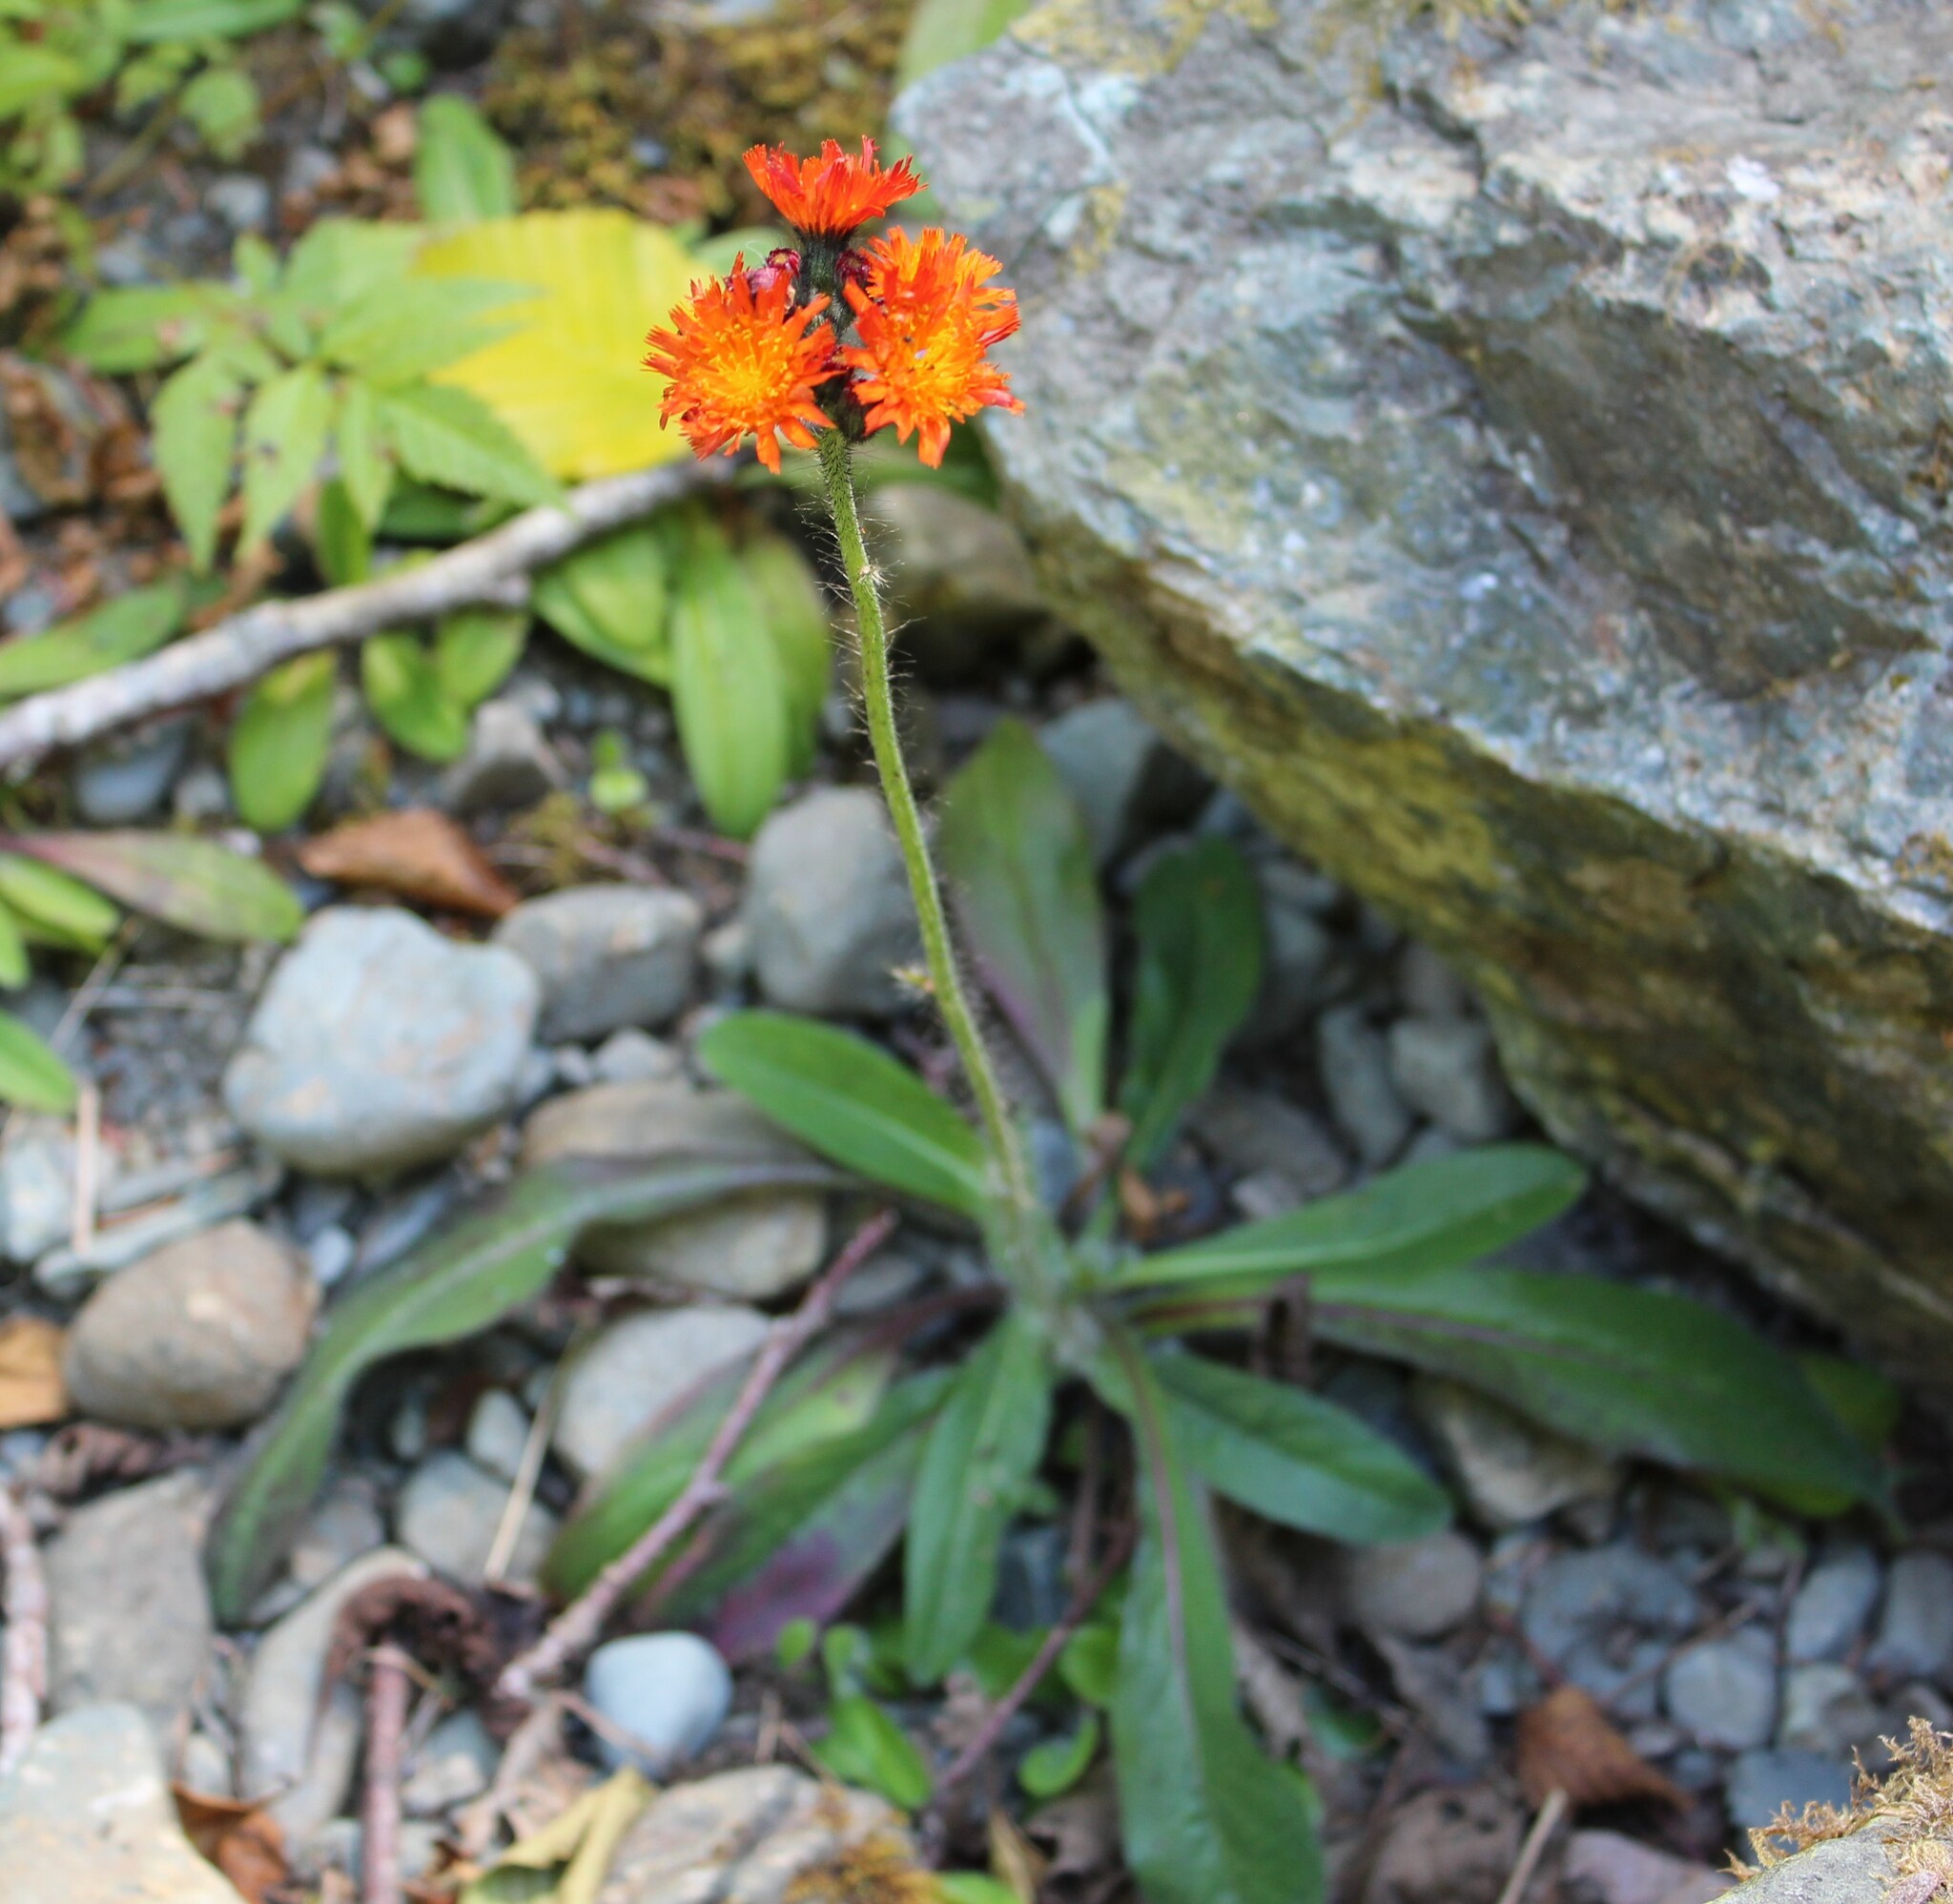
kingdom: Plantae
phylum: Tracheophyta
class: Magnoliopsida
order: Asterales
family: Asteraceae
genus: Pilosella
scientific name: Pilosella aurantiaca
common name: Fox-and-cubs
